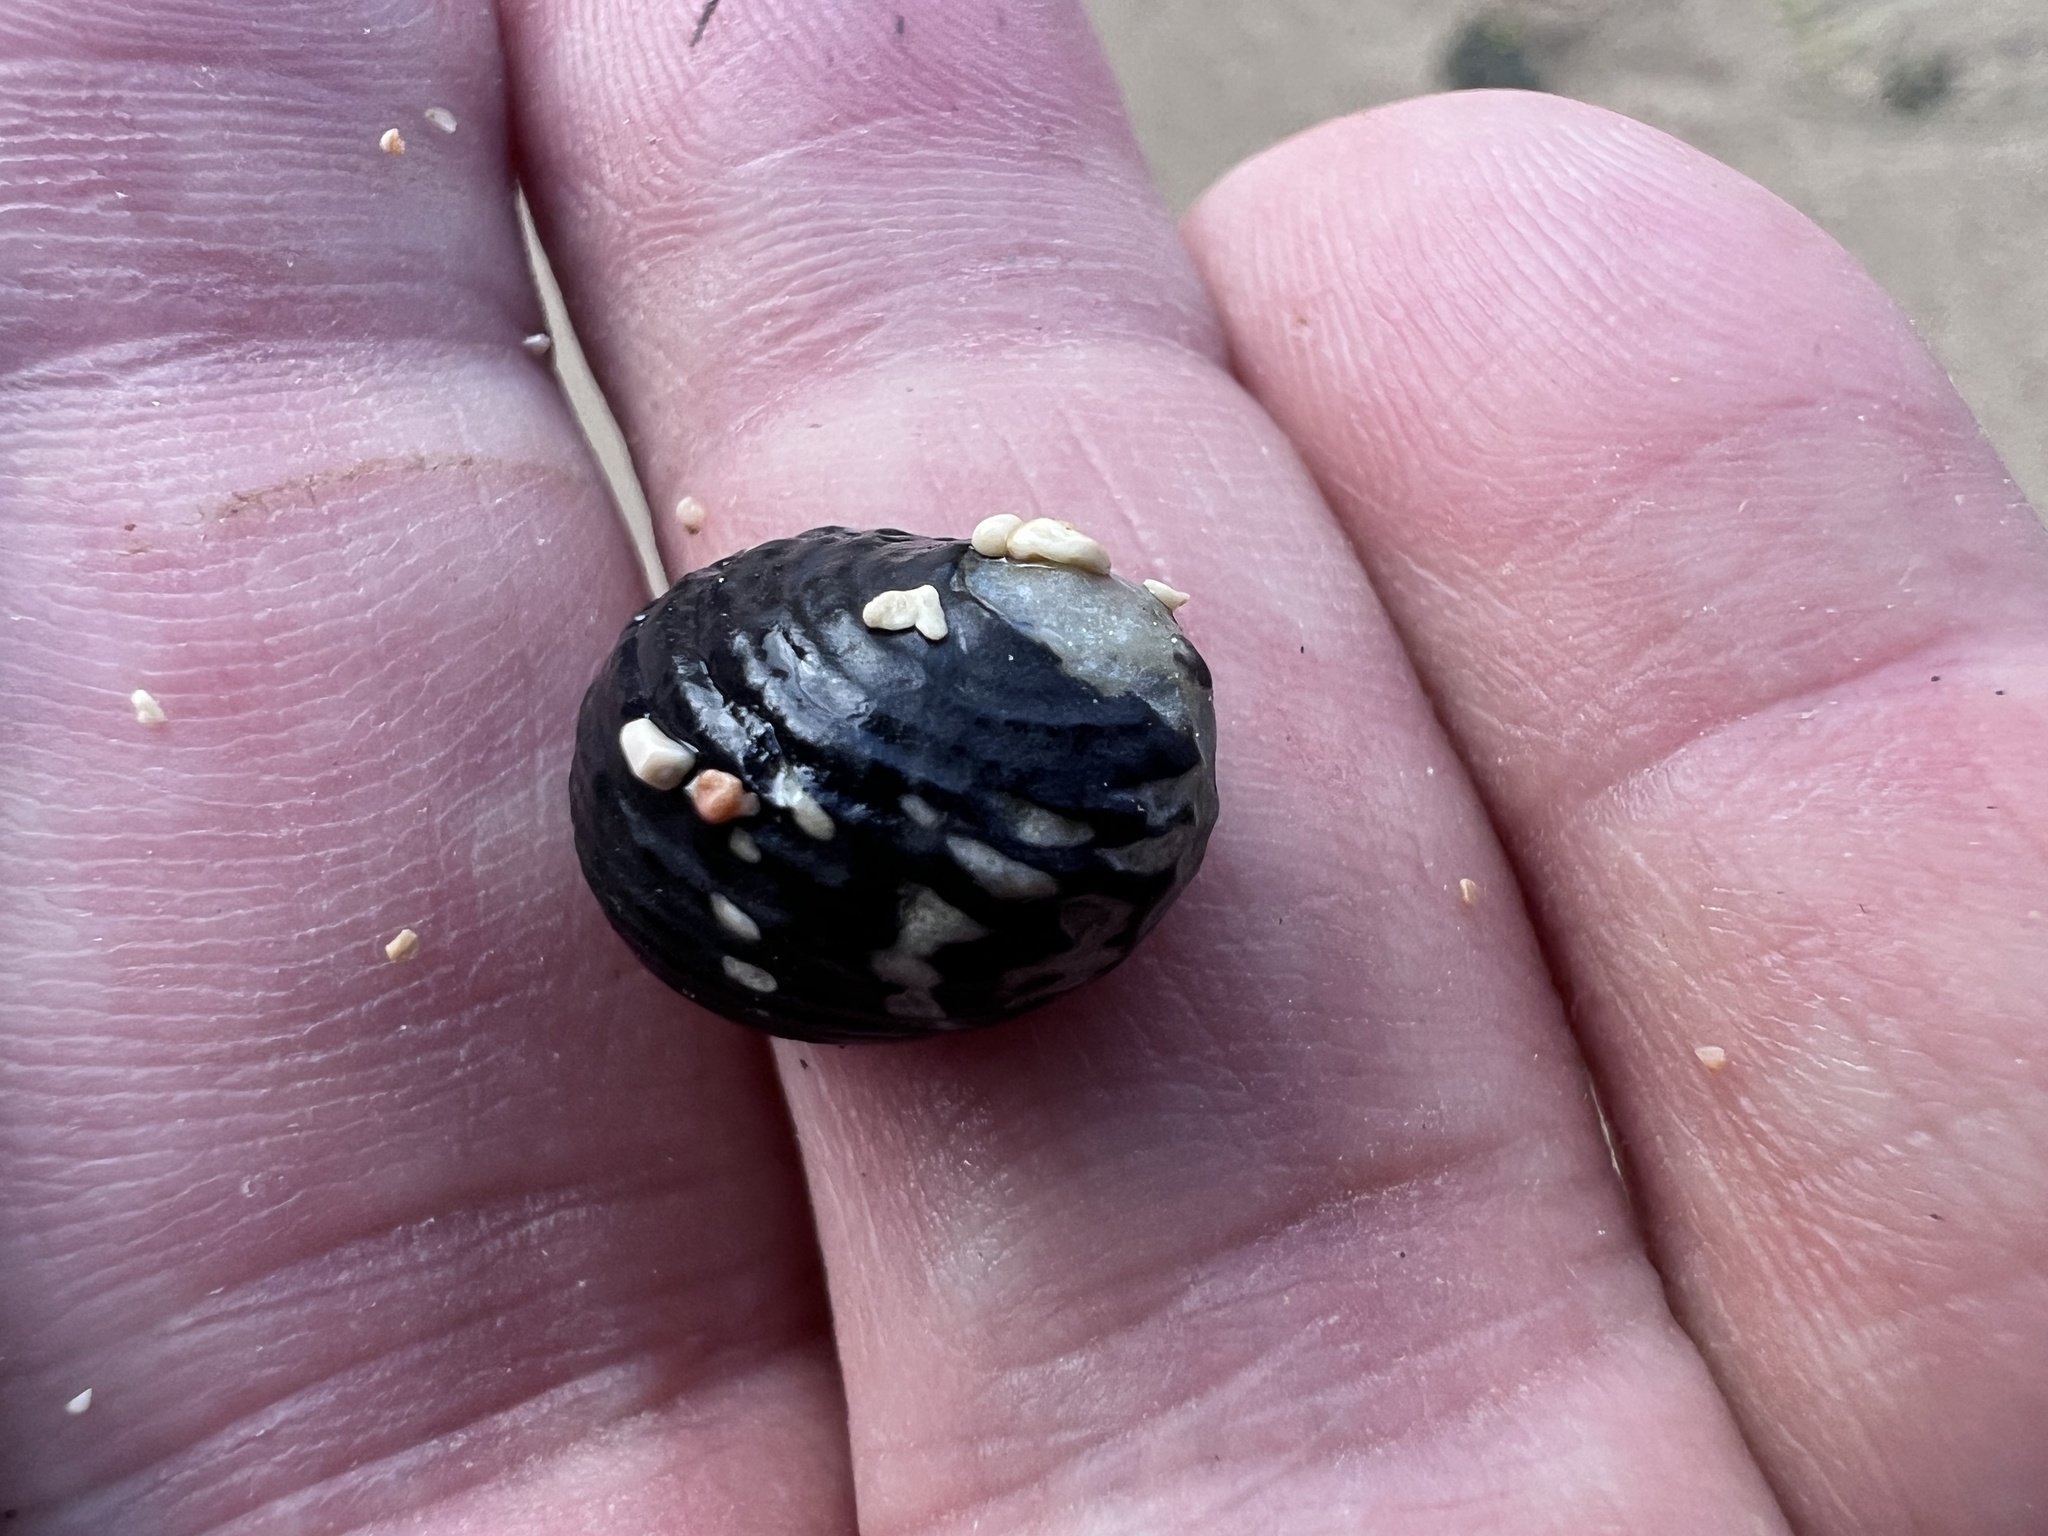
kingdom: Animalia
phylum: Mollusca
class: Gastropoda
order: Cycloneritida
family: Neritidae
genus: Nerita
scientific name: Nerita tessellata
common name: Checkered nerite
